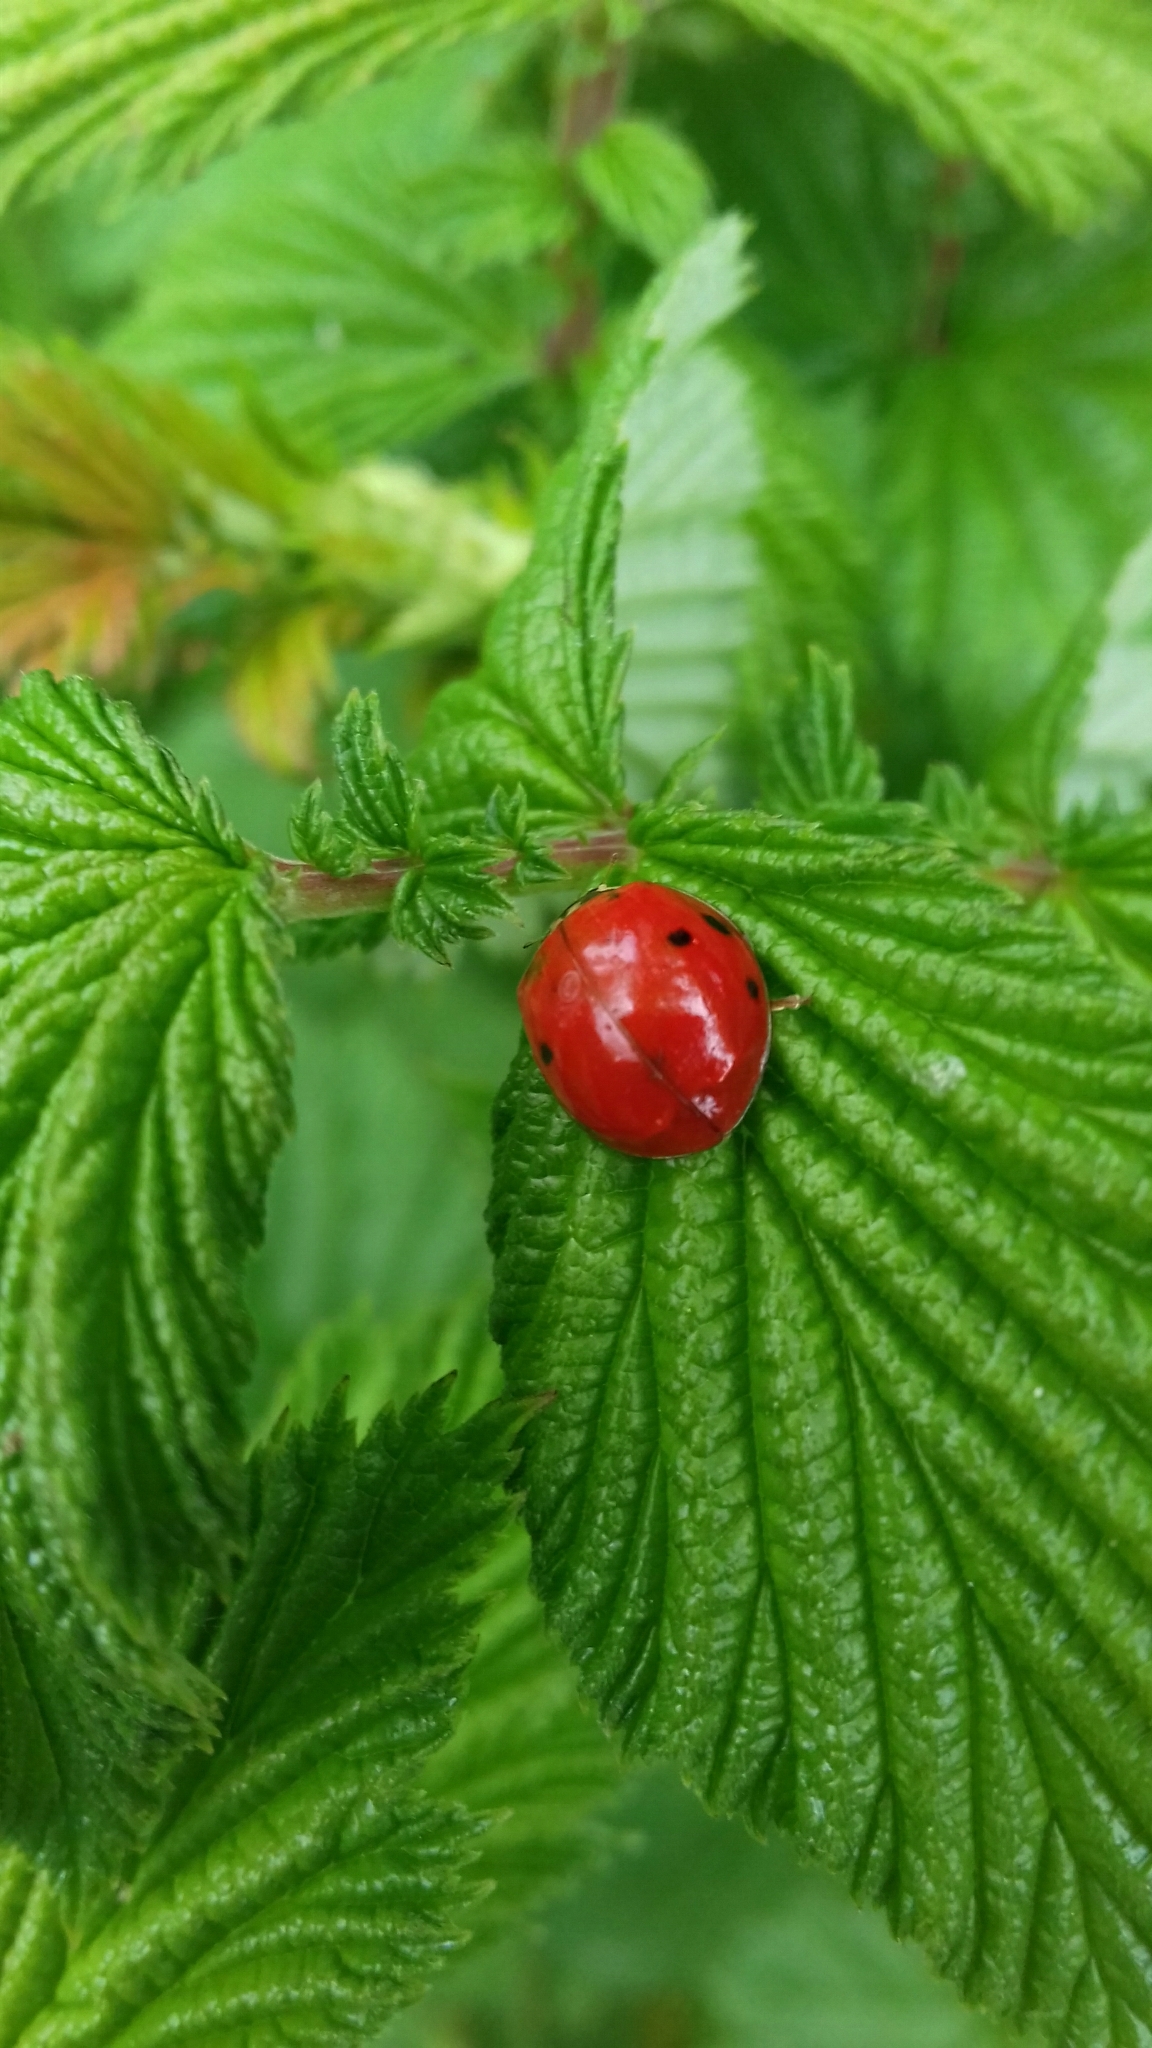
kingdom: Animalia
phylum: Arthropoda
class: Insecta
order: Coleoptera
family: Coccinellidae
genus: Harmonia
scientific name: Harmonia axyridis
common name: Harlequin ladybird
